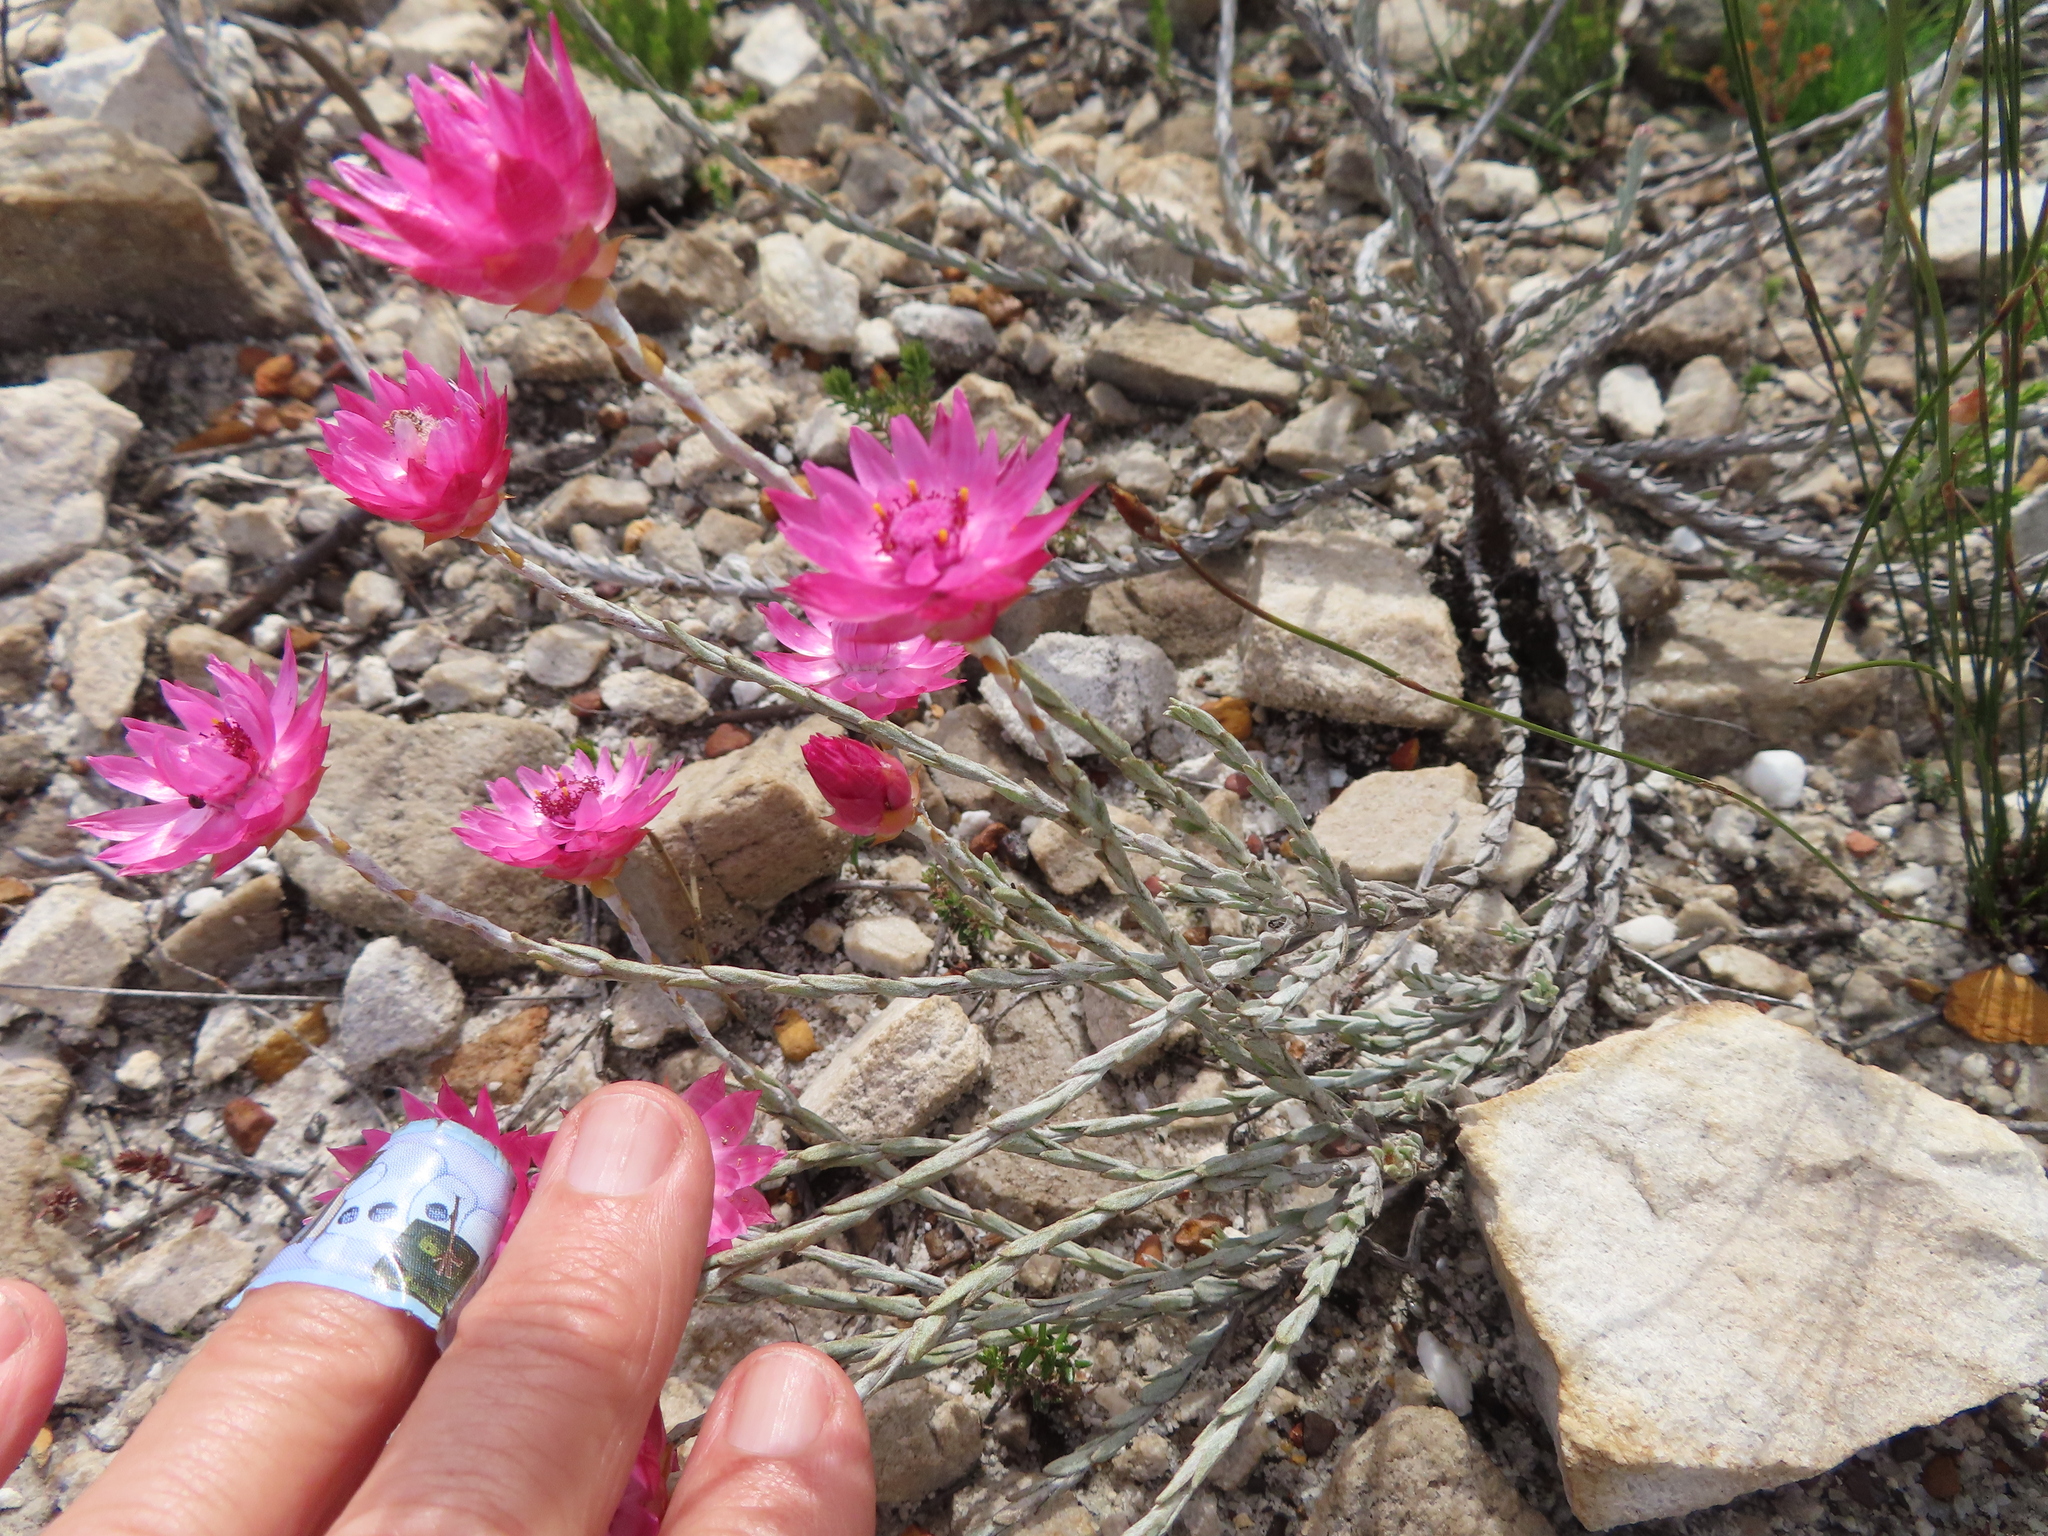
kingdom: Plantae
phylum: Tracheophyta
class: Magnoliopsida
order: Asterales
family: Asteraceae
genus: Syncarpha
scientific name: Syncarpha canescens
